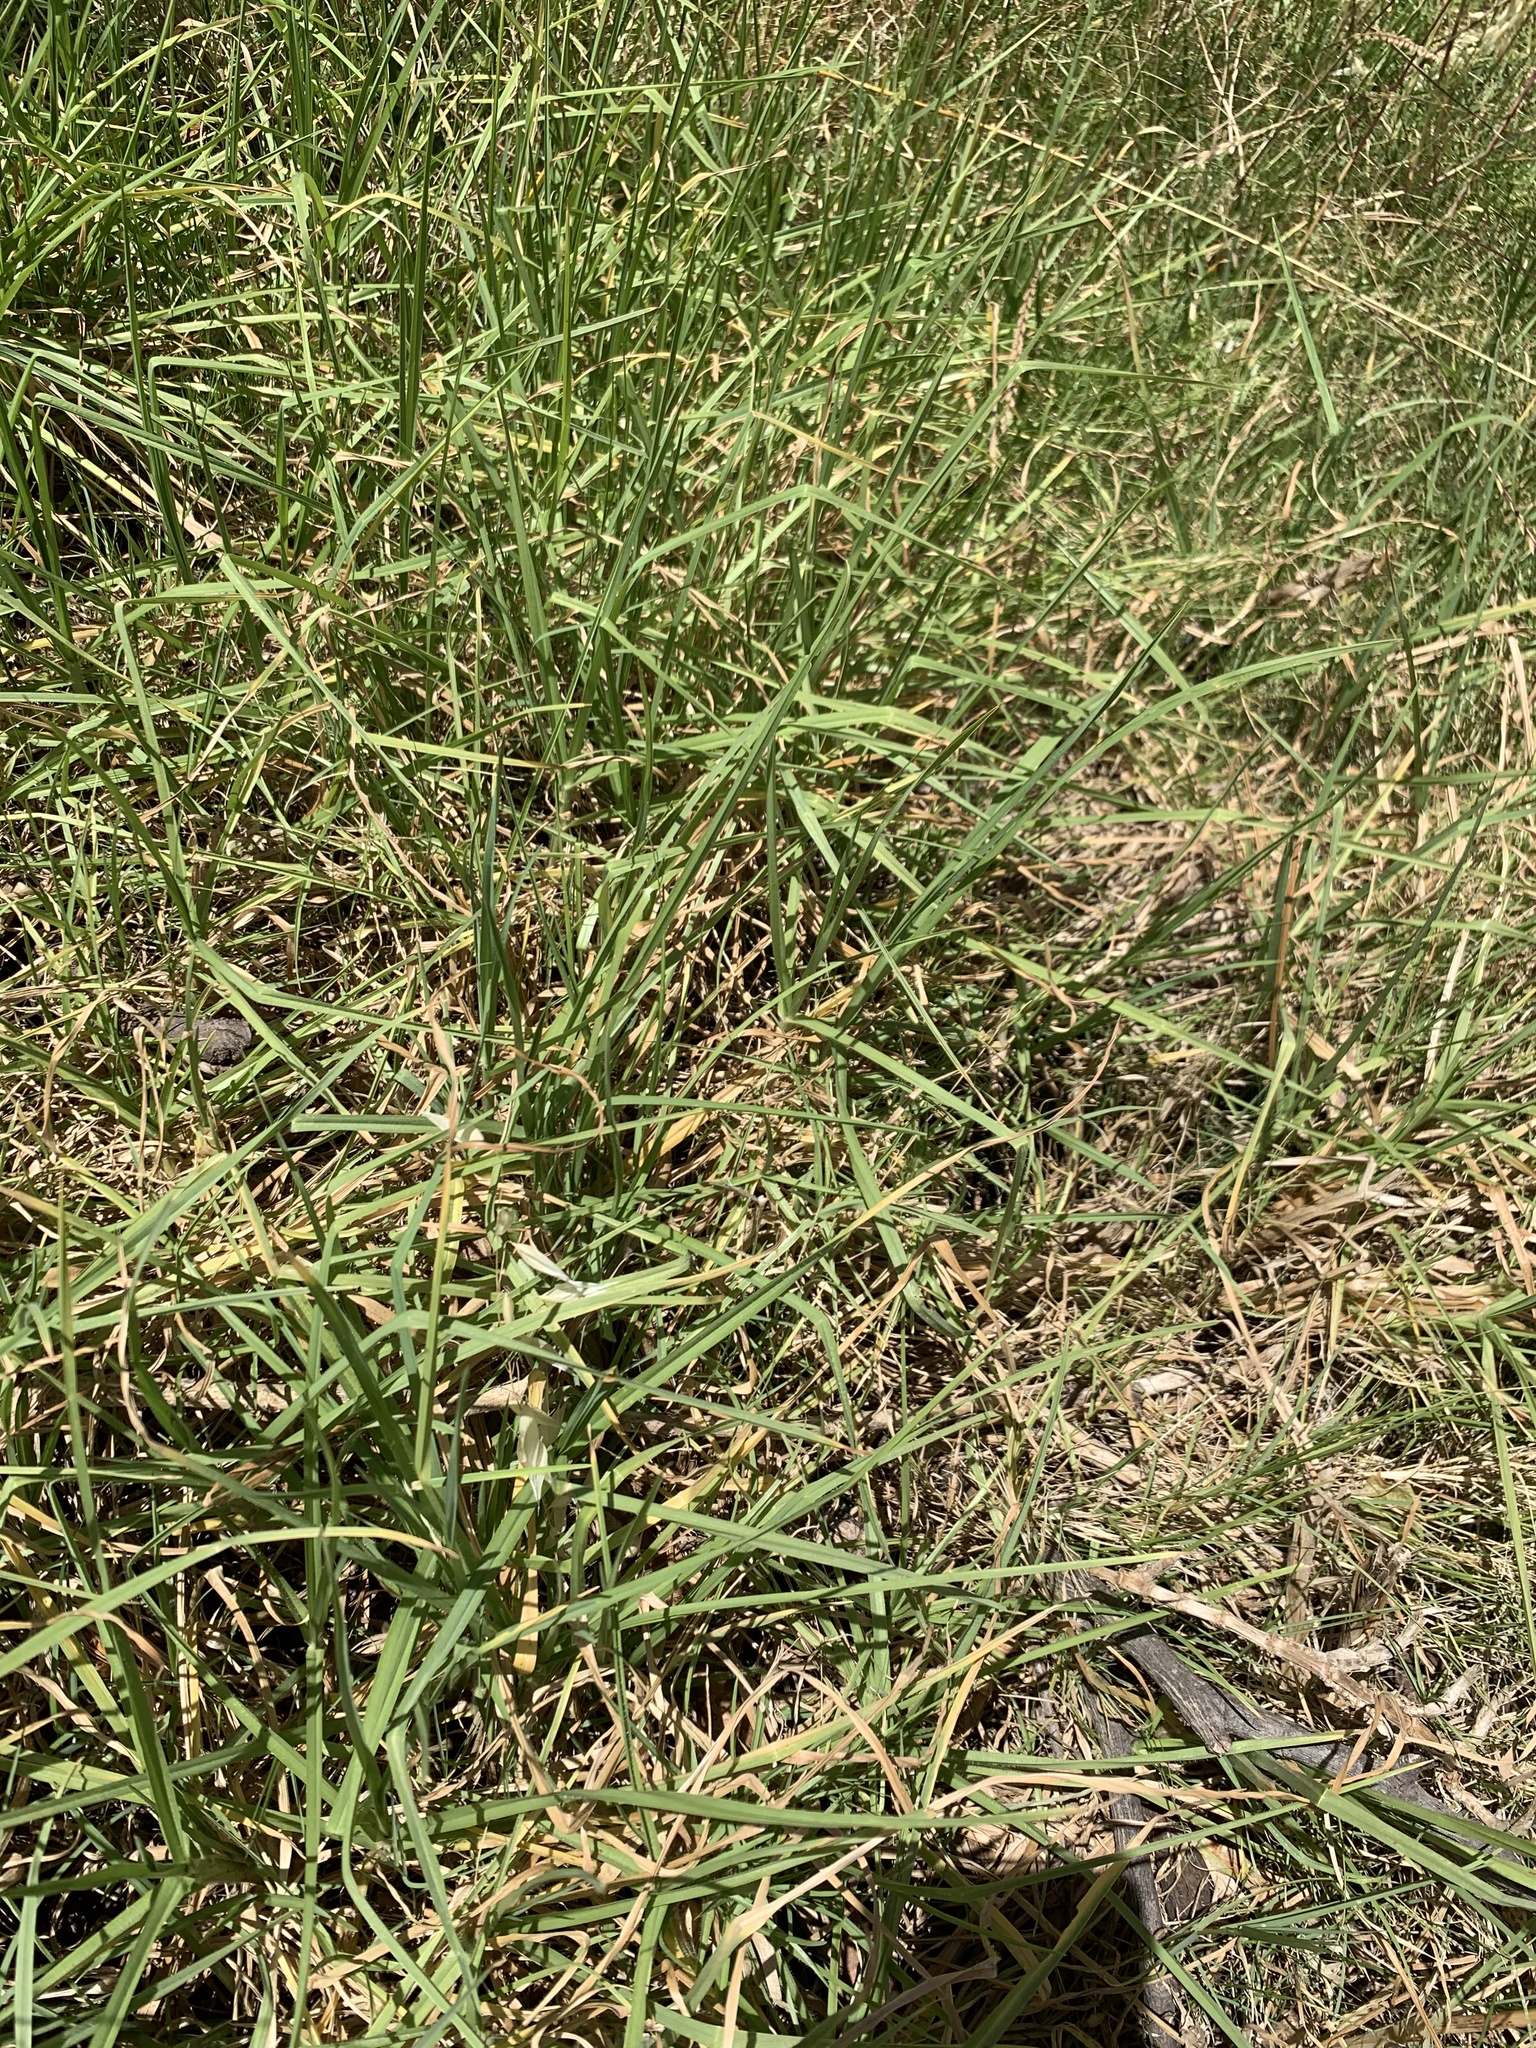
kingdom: Plantae
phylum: Tracheophyta
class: Liliopsida
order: Poales
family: Poaceae
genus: Cenchrus
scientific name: Cenchrus clandestinus
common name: Kikuyugrass
